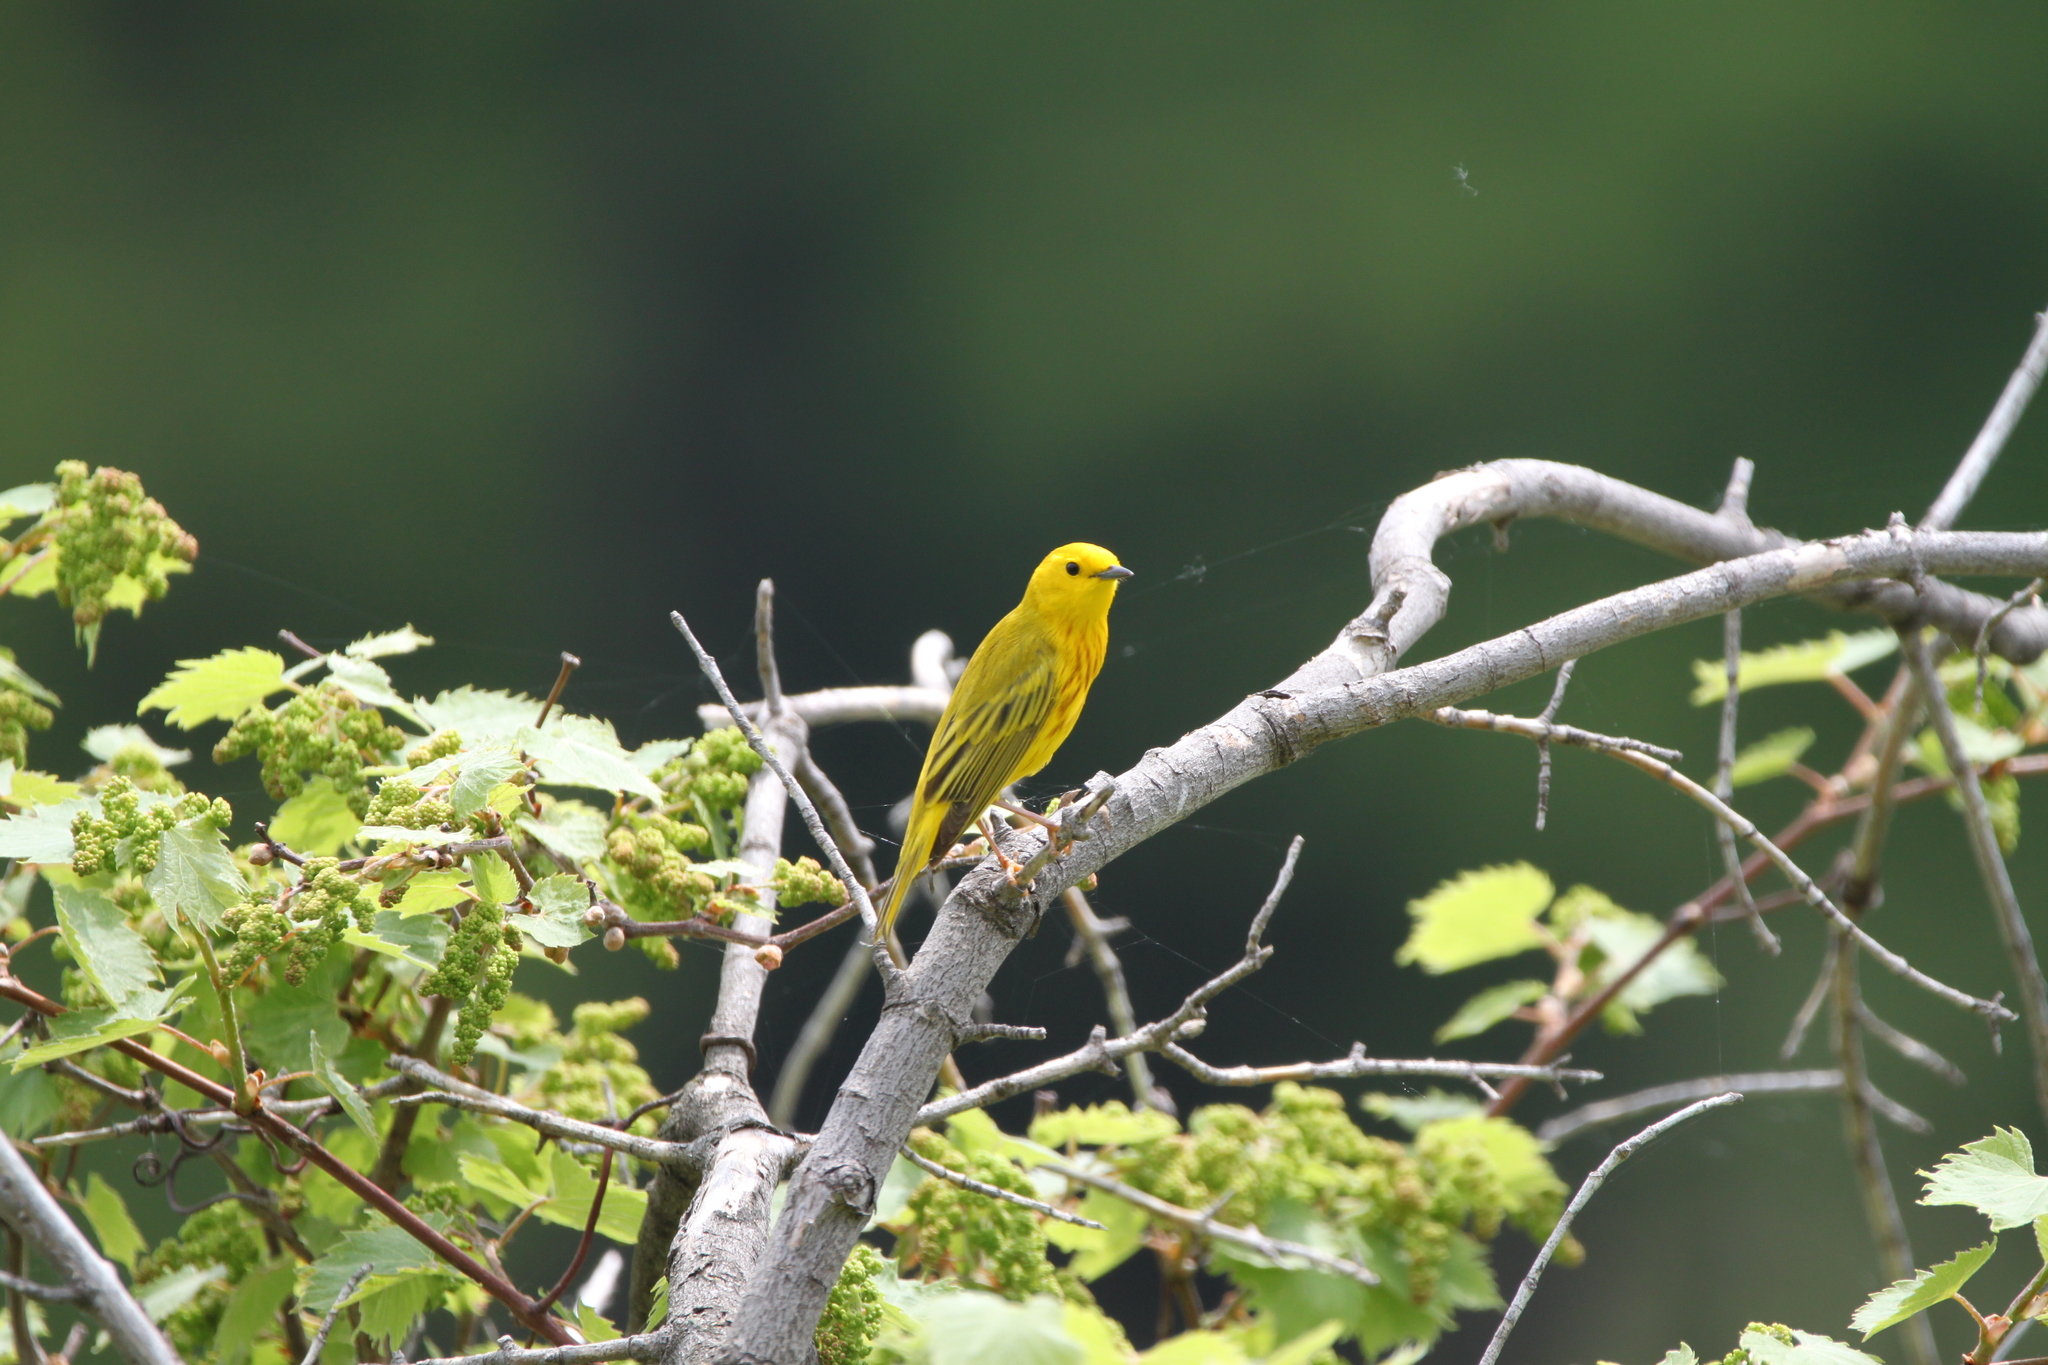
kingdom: Animalia
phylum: Chordata
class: Aves
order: Passeriformes
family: Parulidae
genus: Setophaga
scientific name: Setophaga petechia
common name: Yellow warbler
